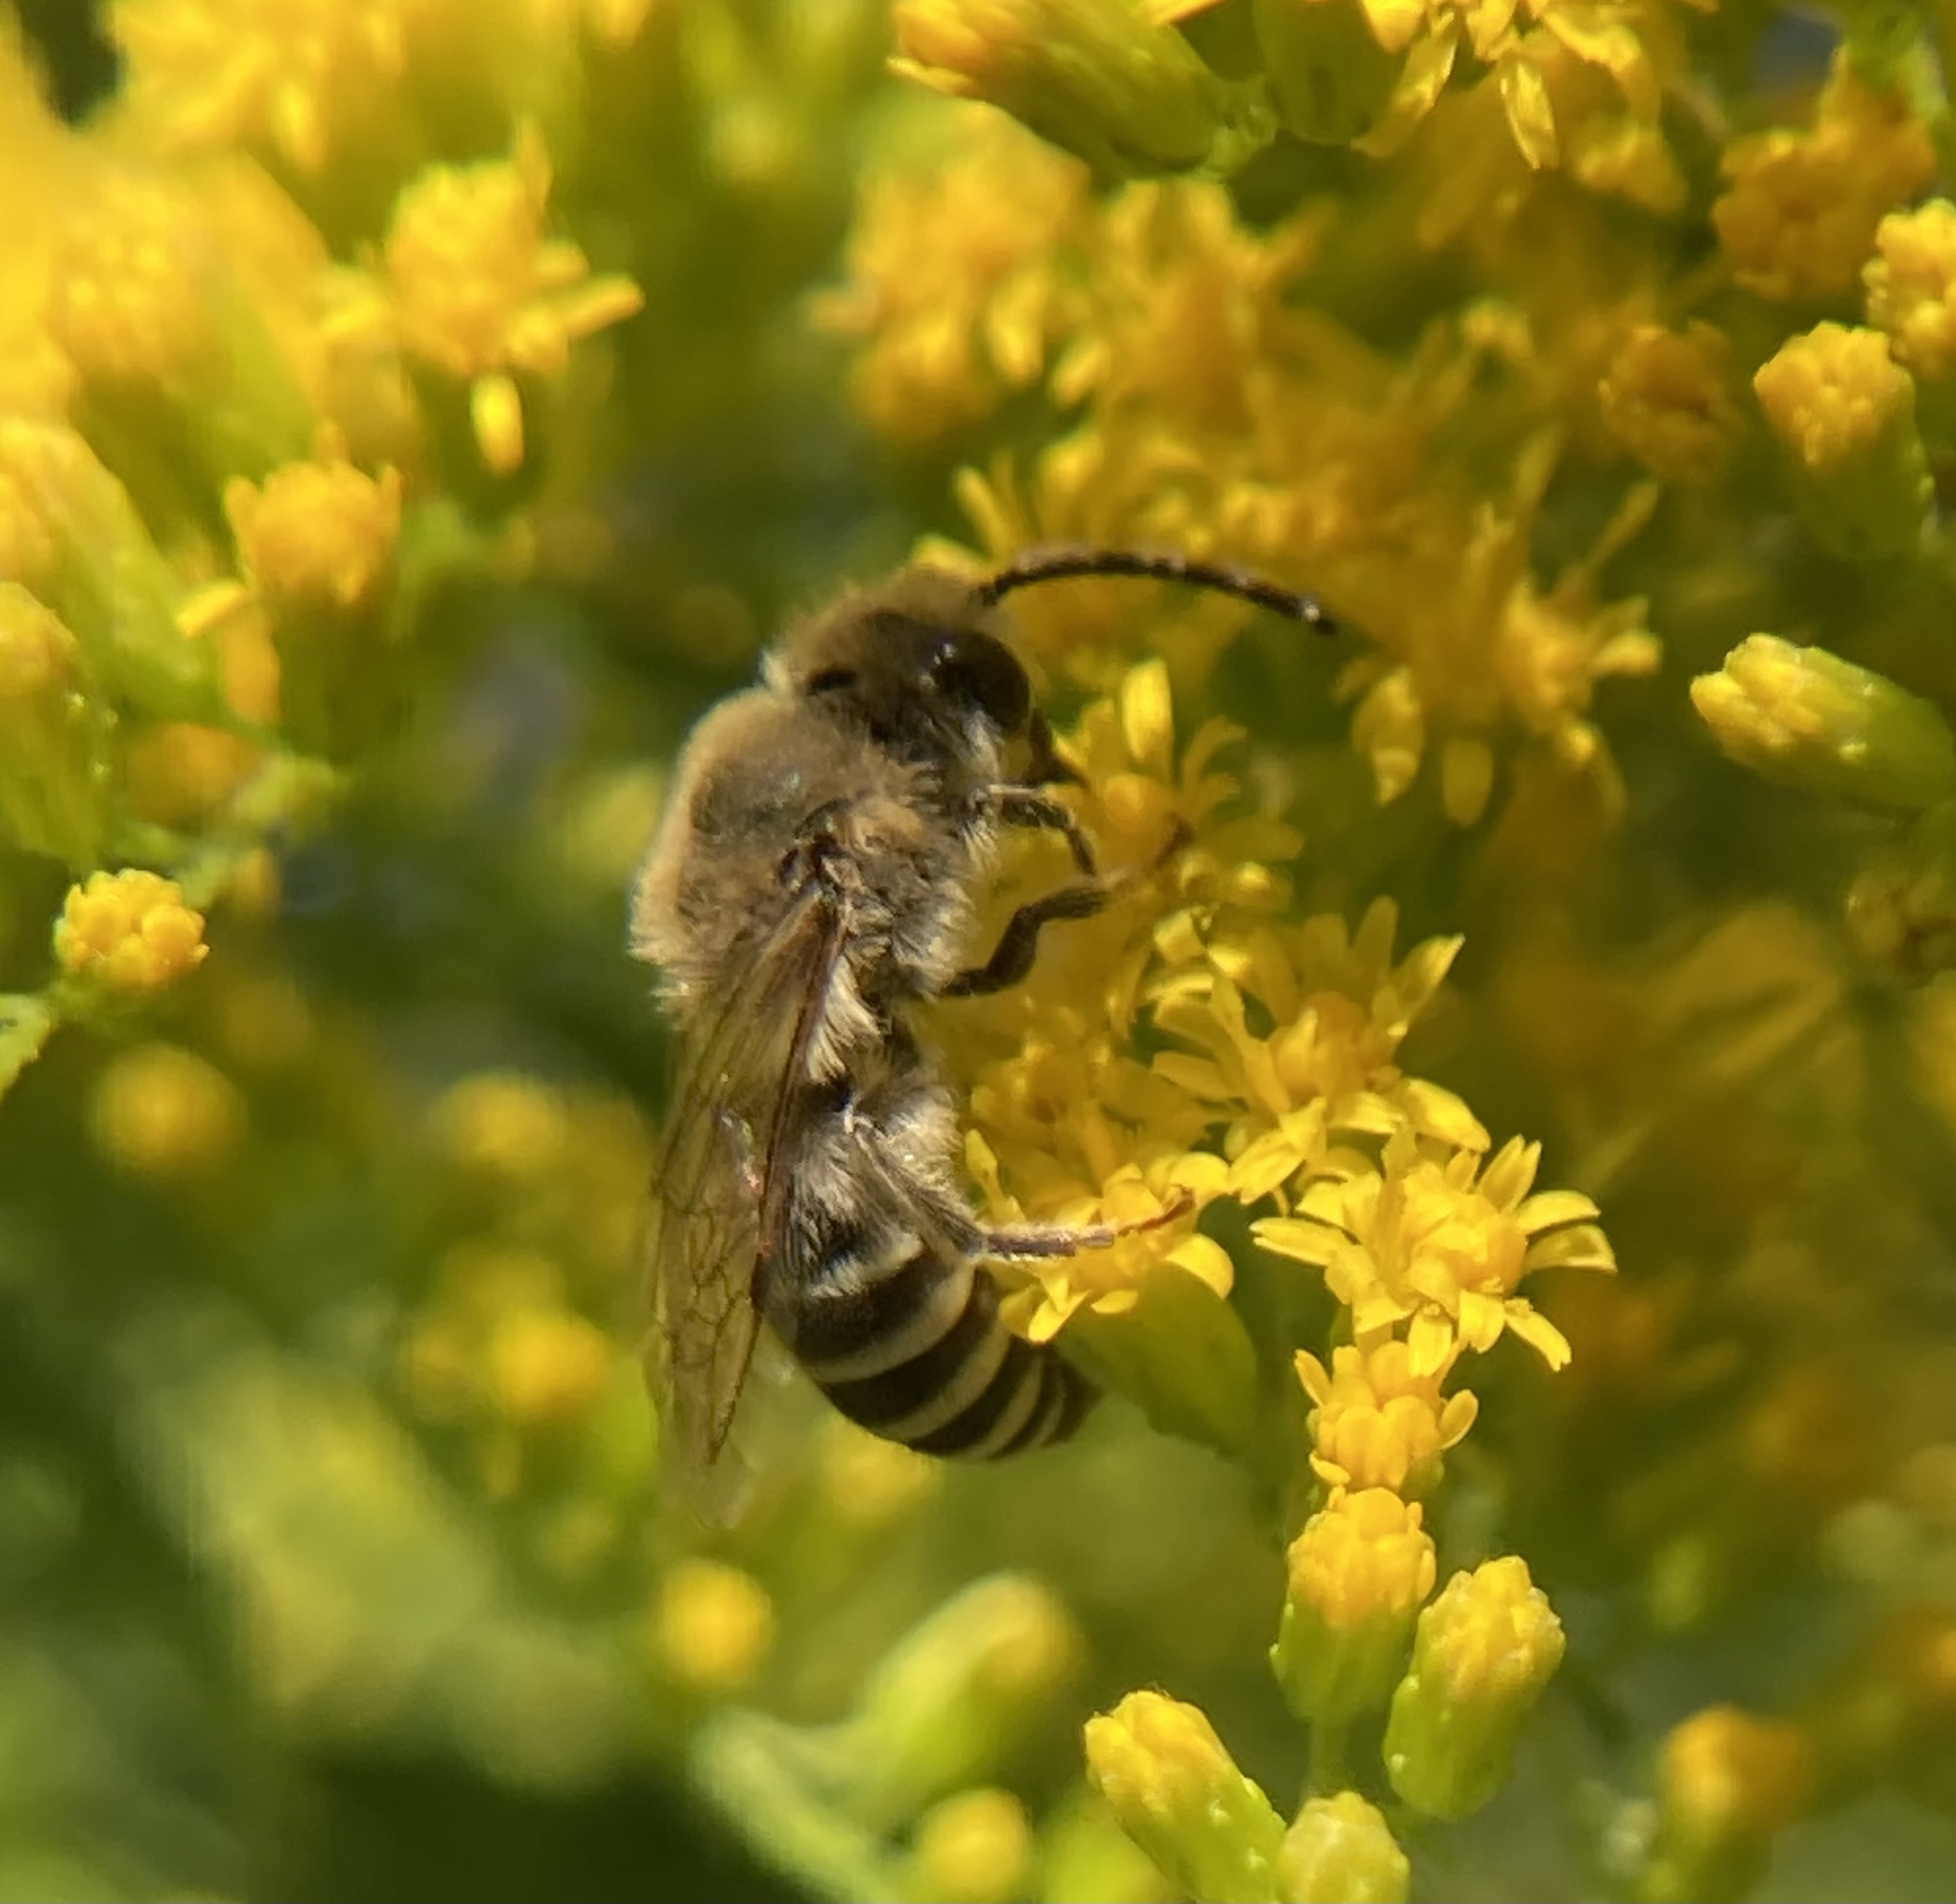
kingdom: Animalia
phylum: Arthropoda
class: Insecta
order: Hymenoptera
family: Colletidae
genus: Colletes
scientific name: Colletes
